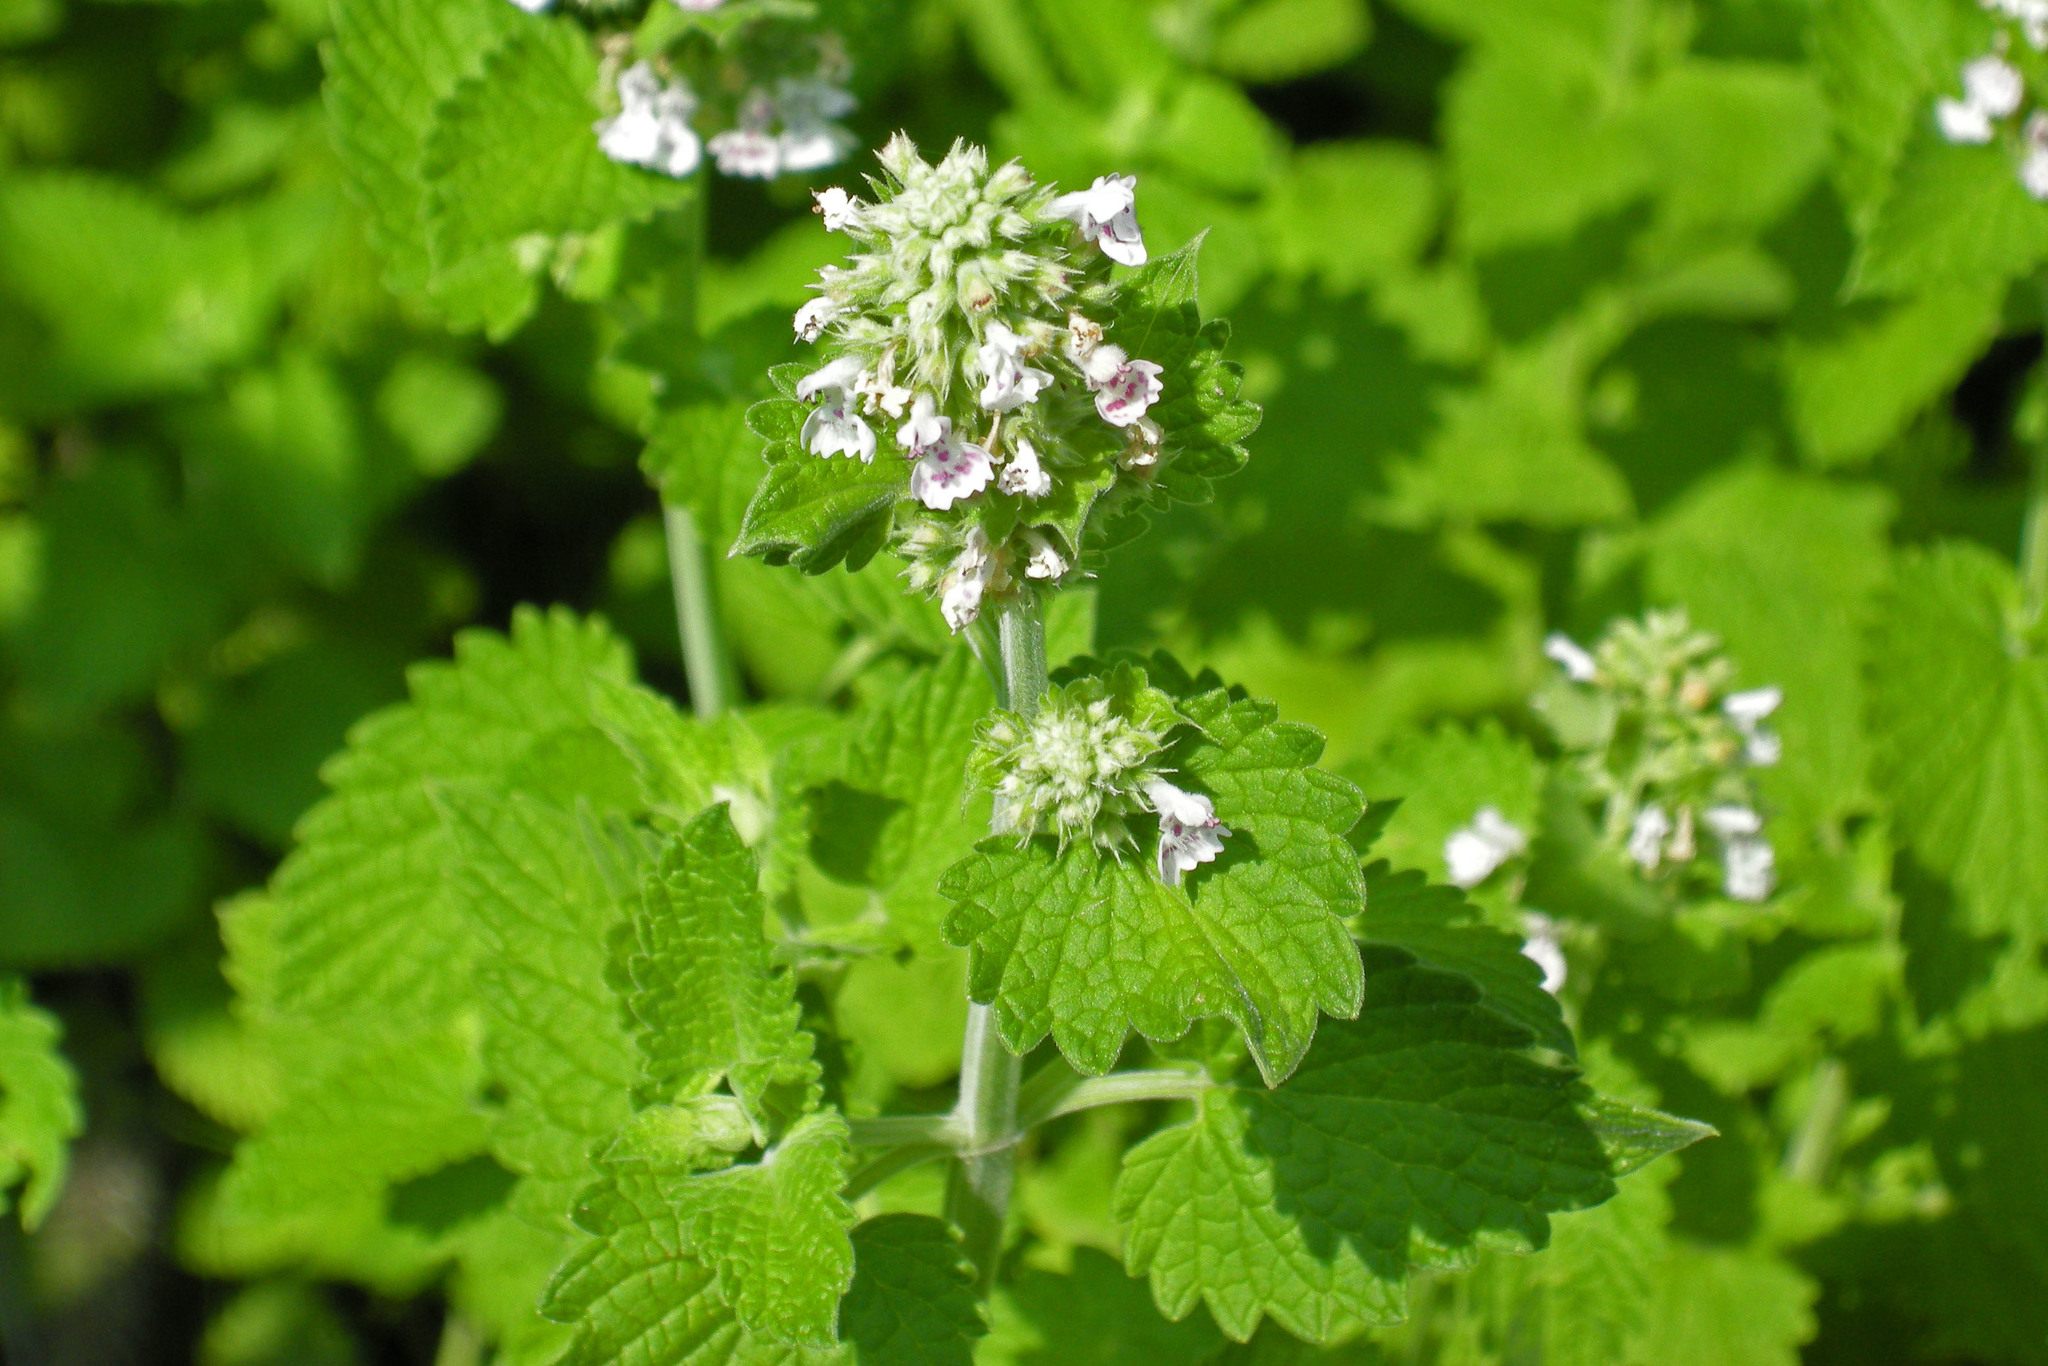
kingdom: Plantae
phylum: Tracheophyta
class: Magnoliopsida
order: Lamiales
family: Lamiaceae
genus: Nepeta
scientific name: Nepeta cataria
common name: Catnip
